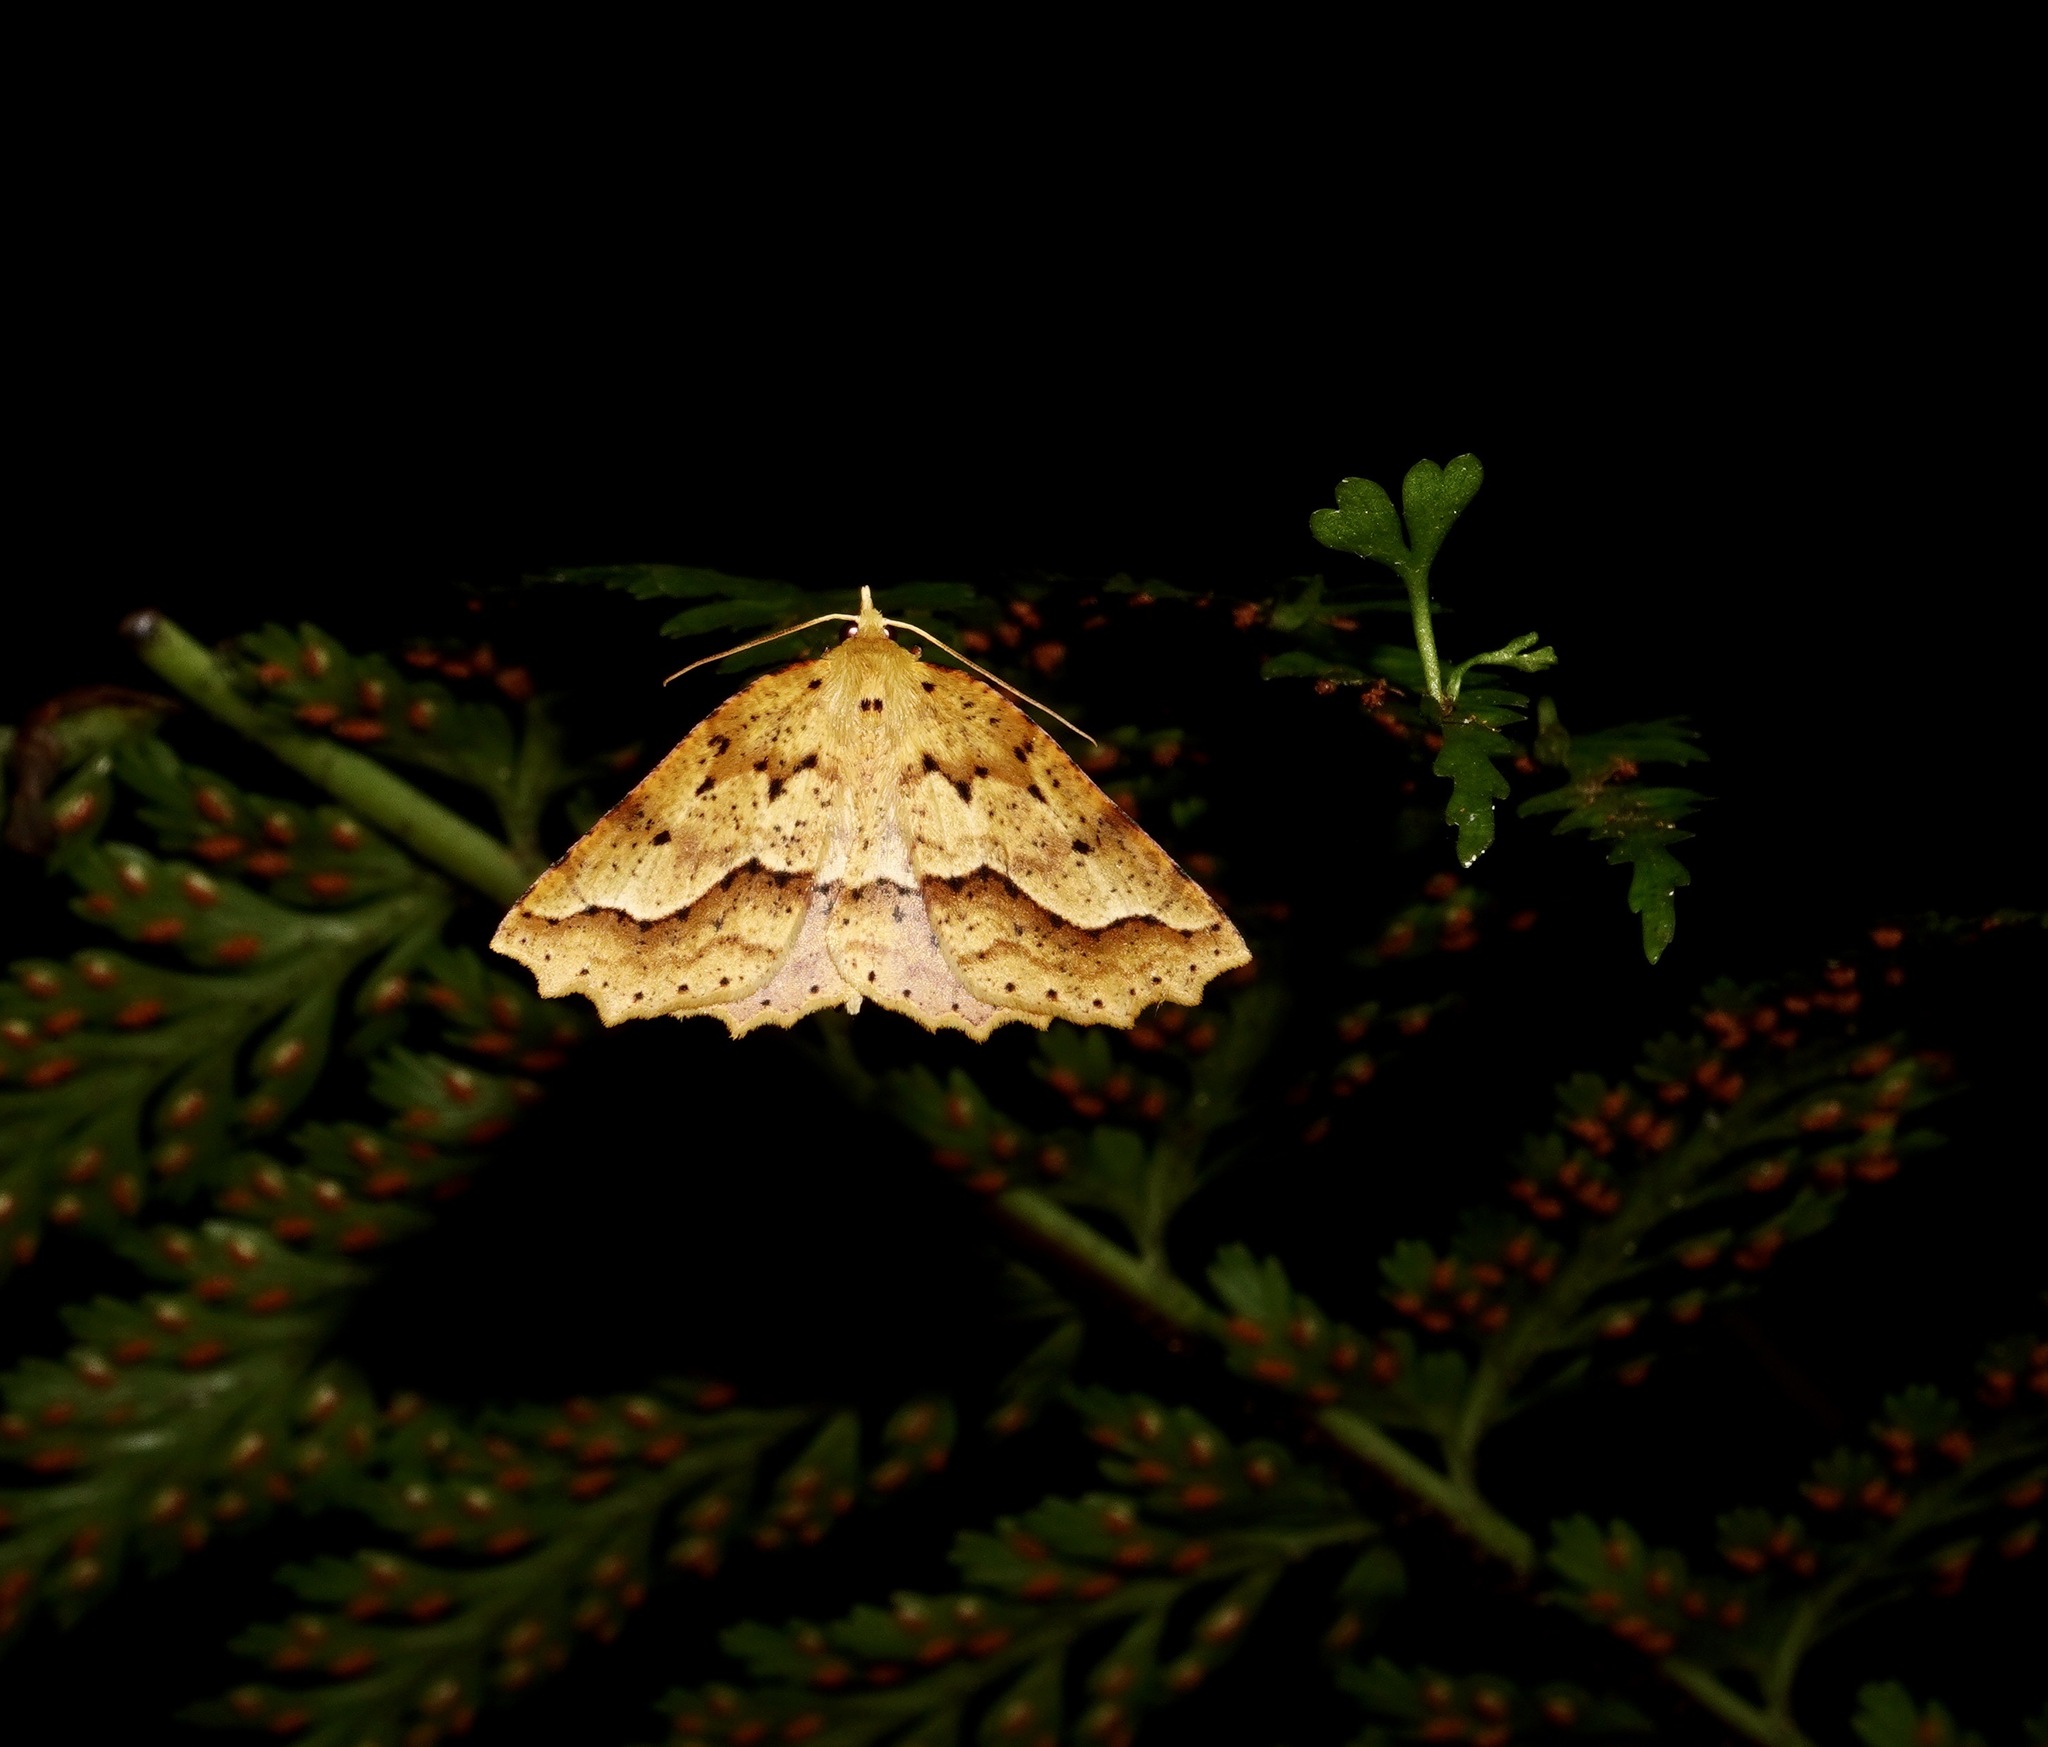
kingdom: Animalia
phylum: Arthropoda
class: Insecta
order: Lepidoptera
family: Geometridae
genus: Ischalis
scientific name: Ischalis variabilis
